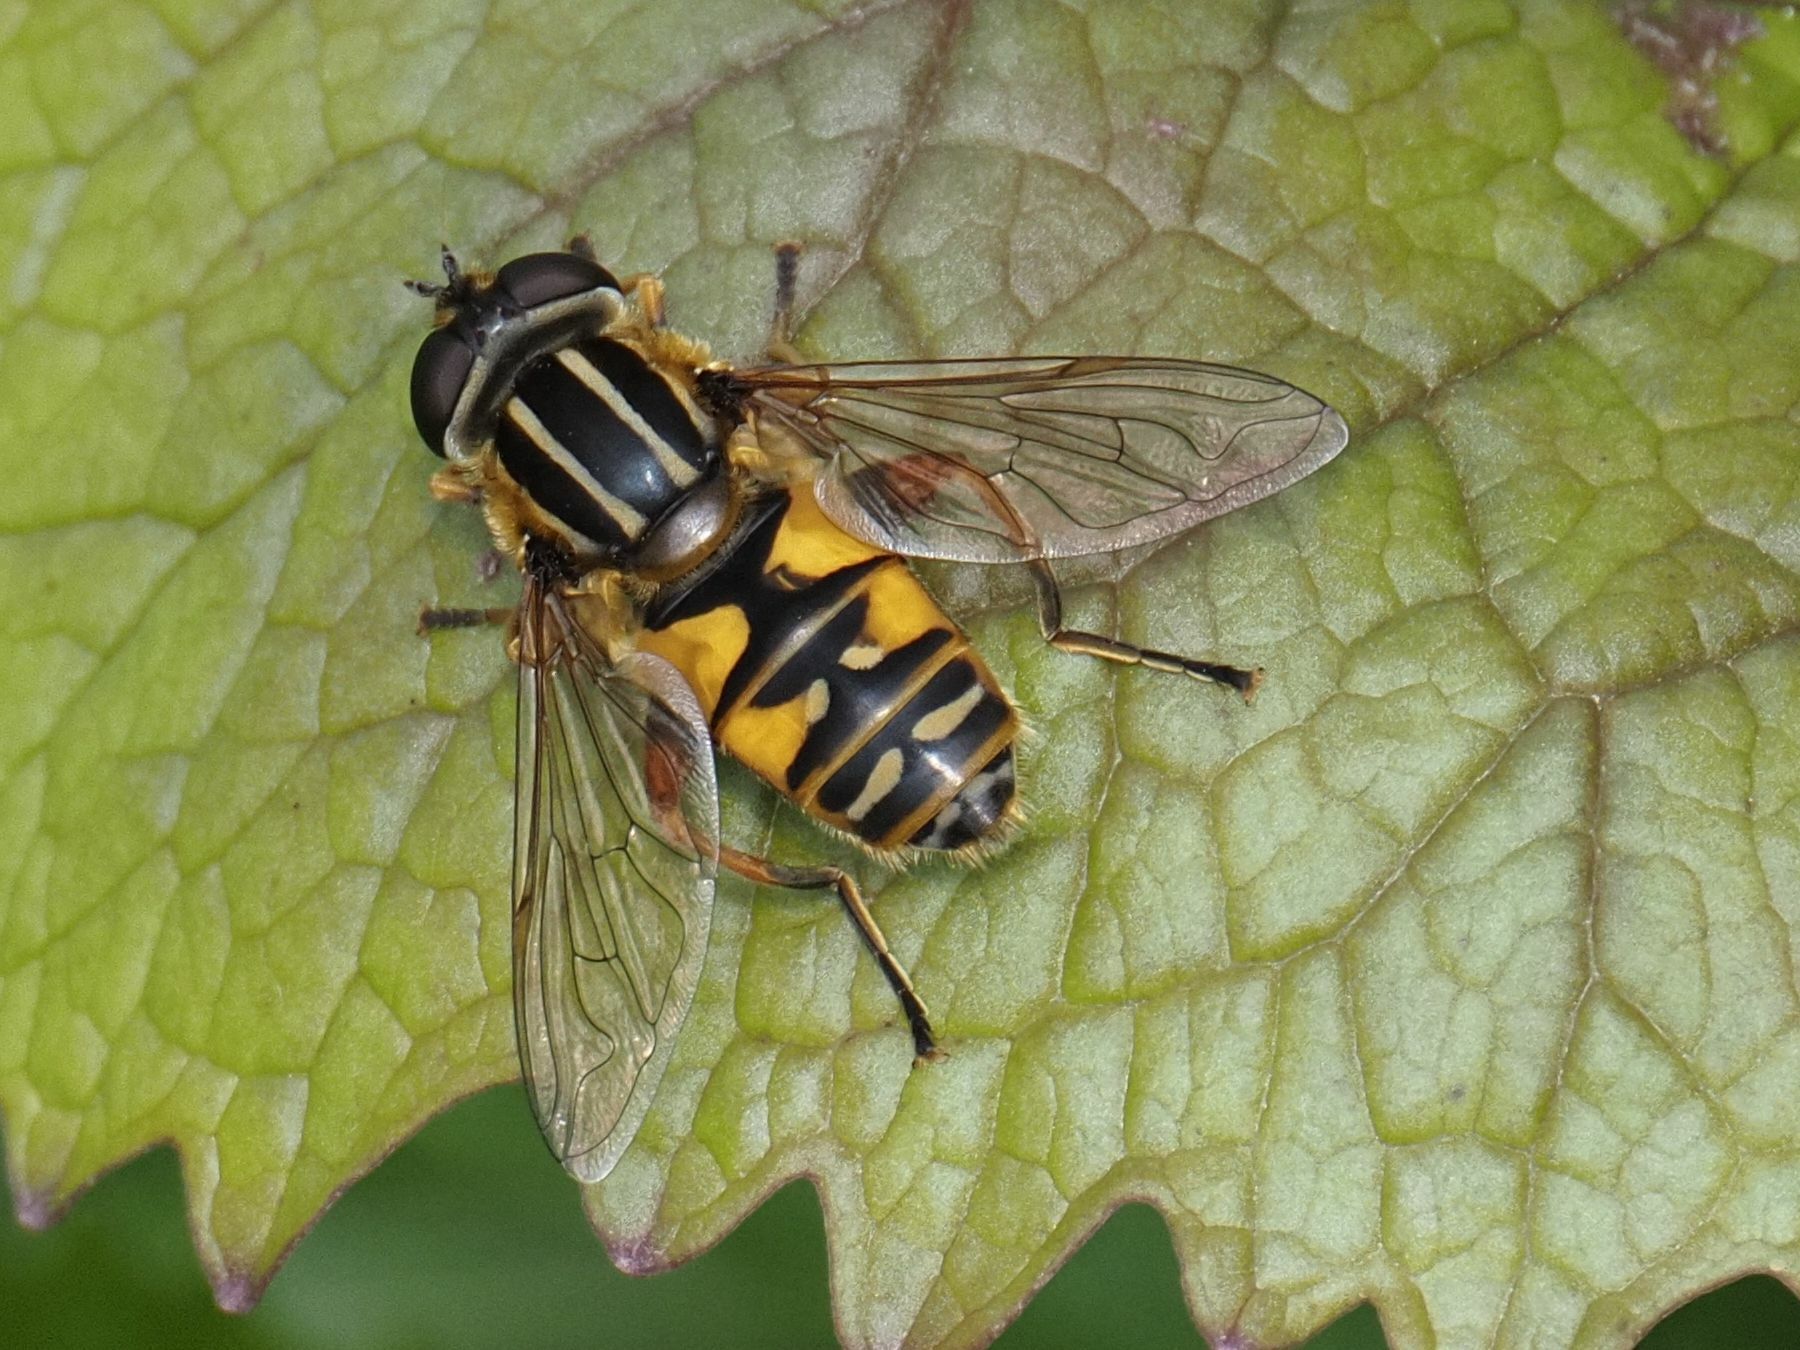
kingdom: Animalia
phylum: Arthropoda
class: Insecta
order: Diptera
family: Syrphidae
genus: Helophilus
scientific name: Helophilus pendulus
